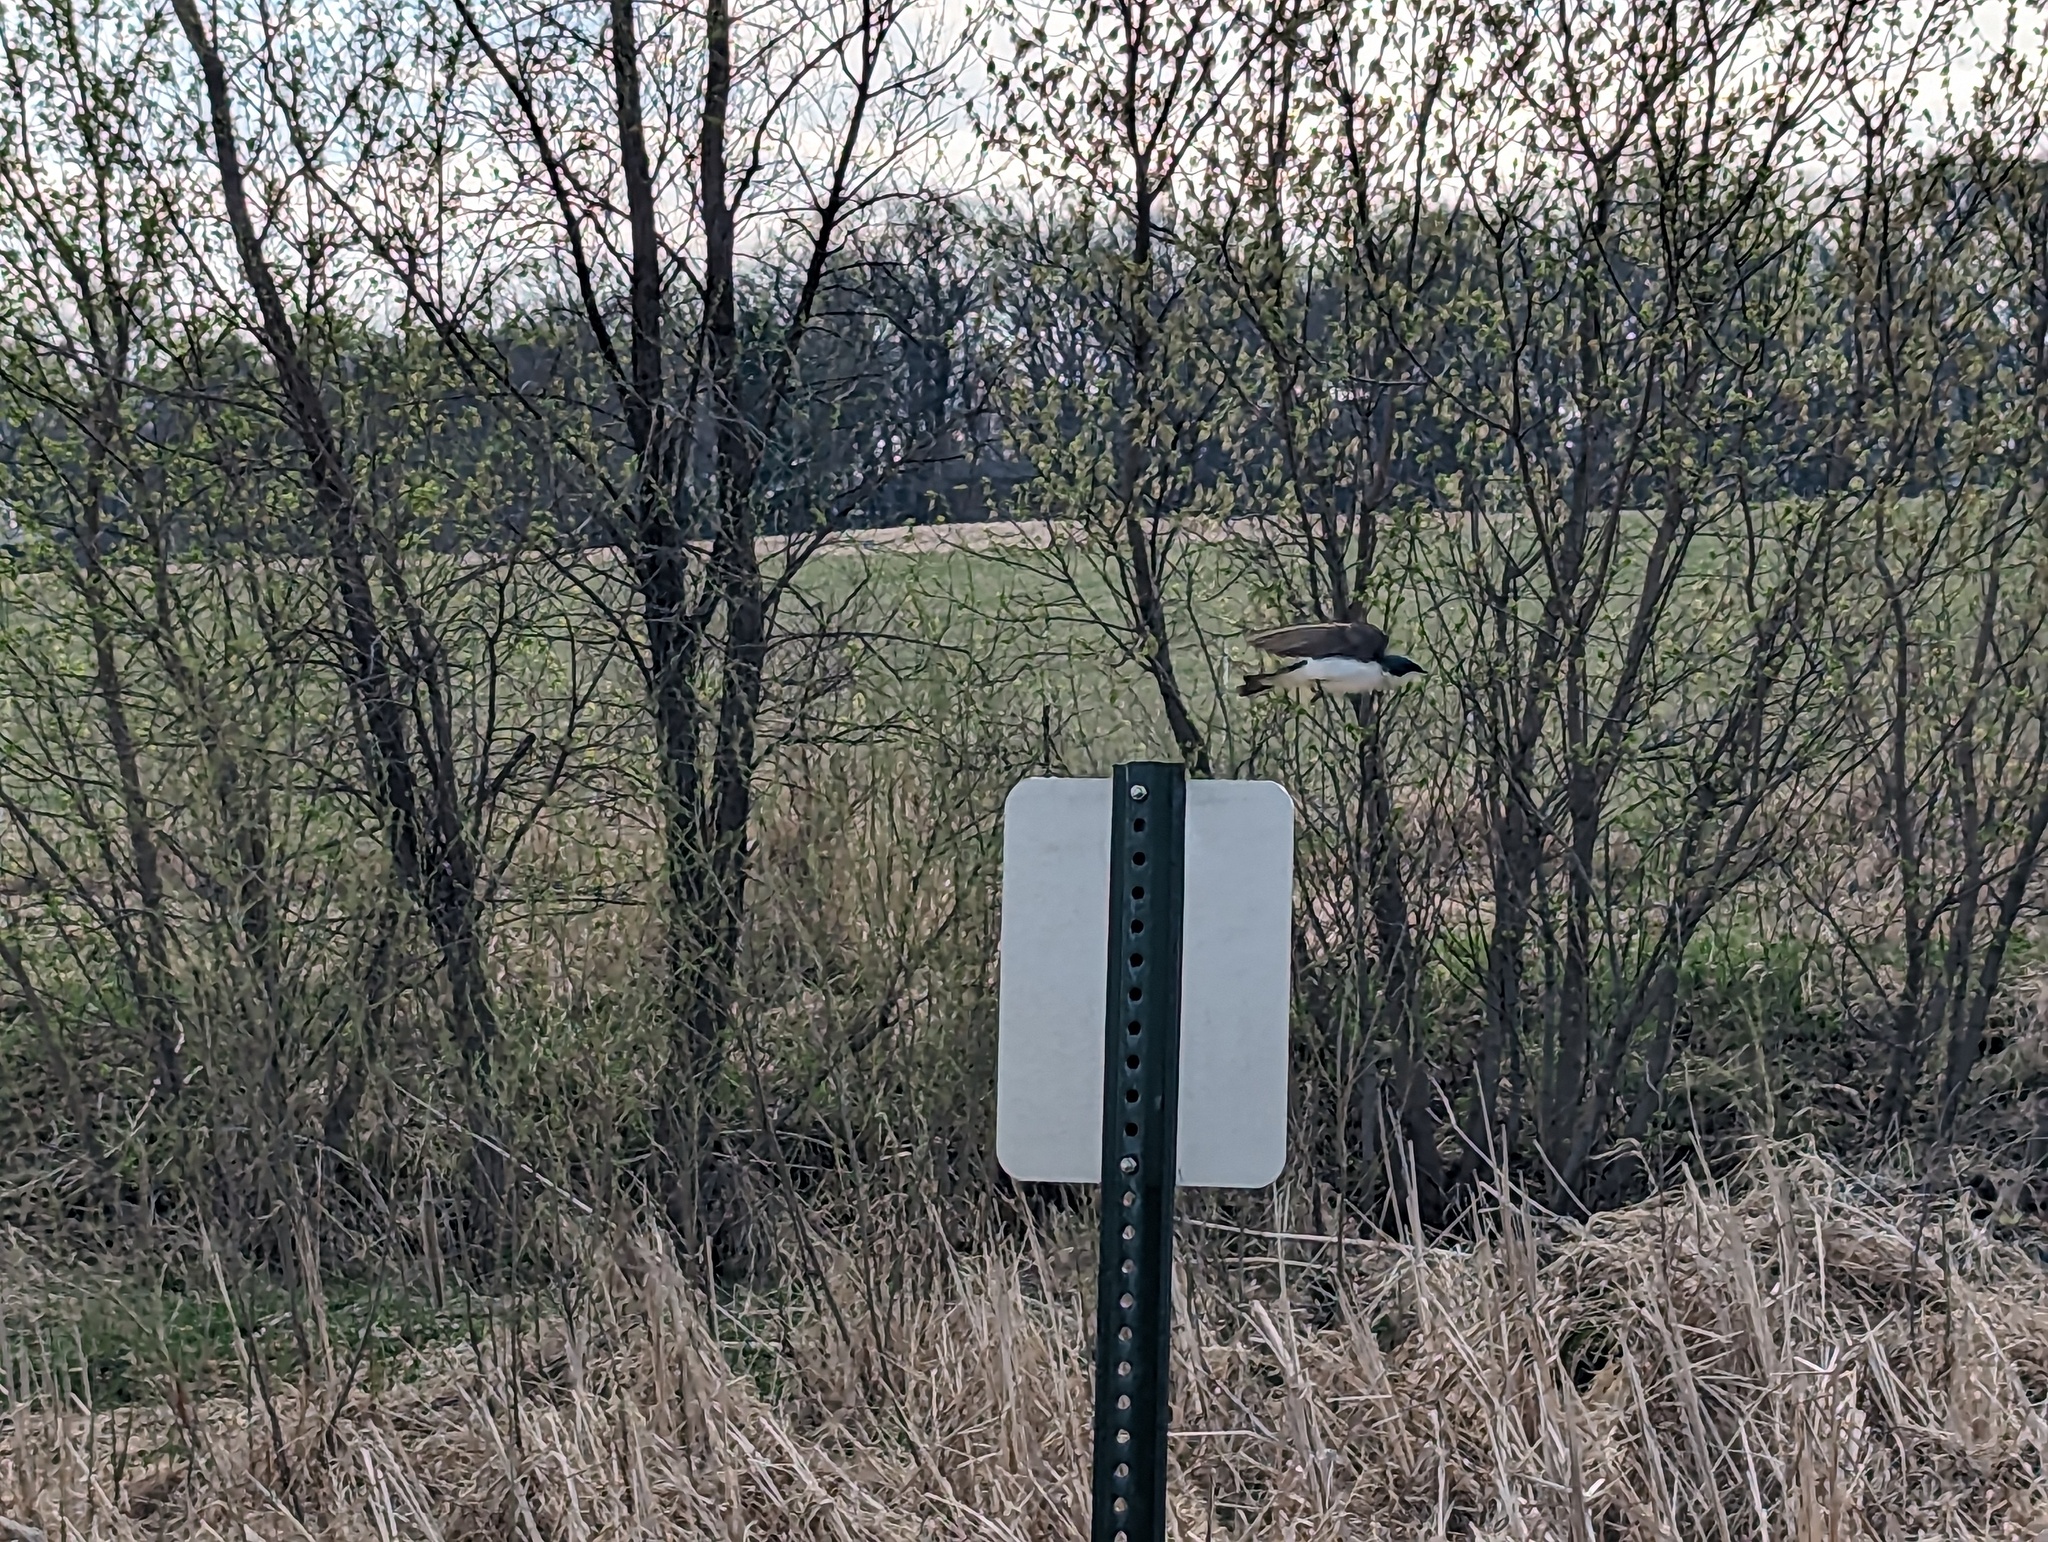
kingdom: Animalia
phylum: Chordata
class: Aves
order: Passeriformes
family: Hirundinidae
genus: Tachycineta
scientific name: Tachycineta bicolor
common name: Tree swallow
